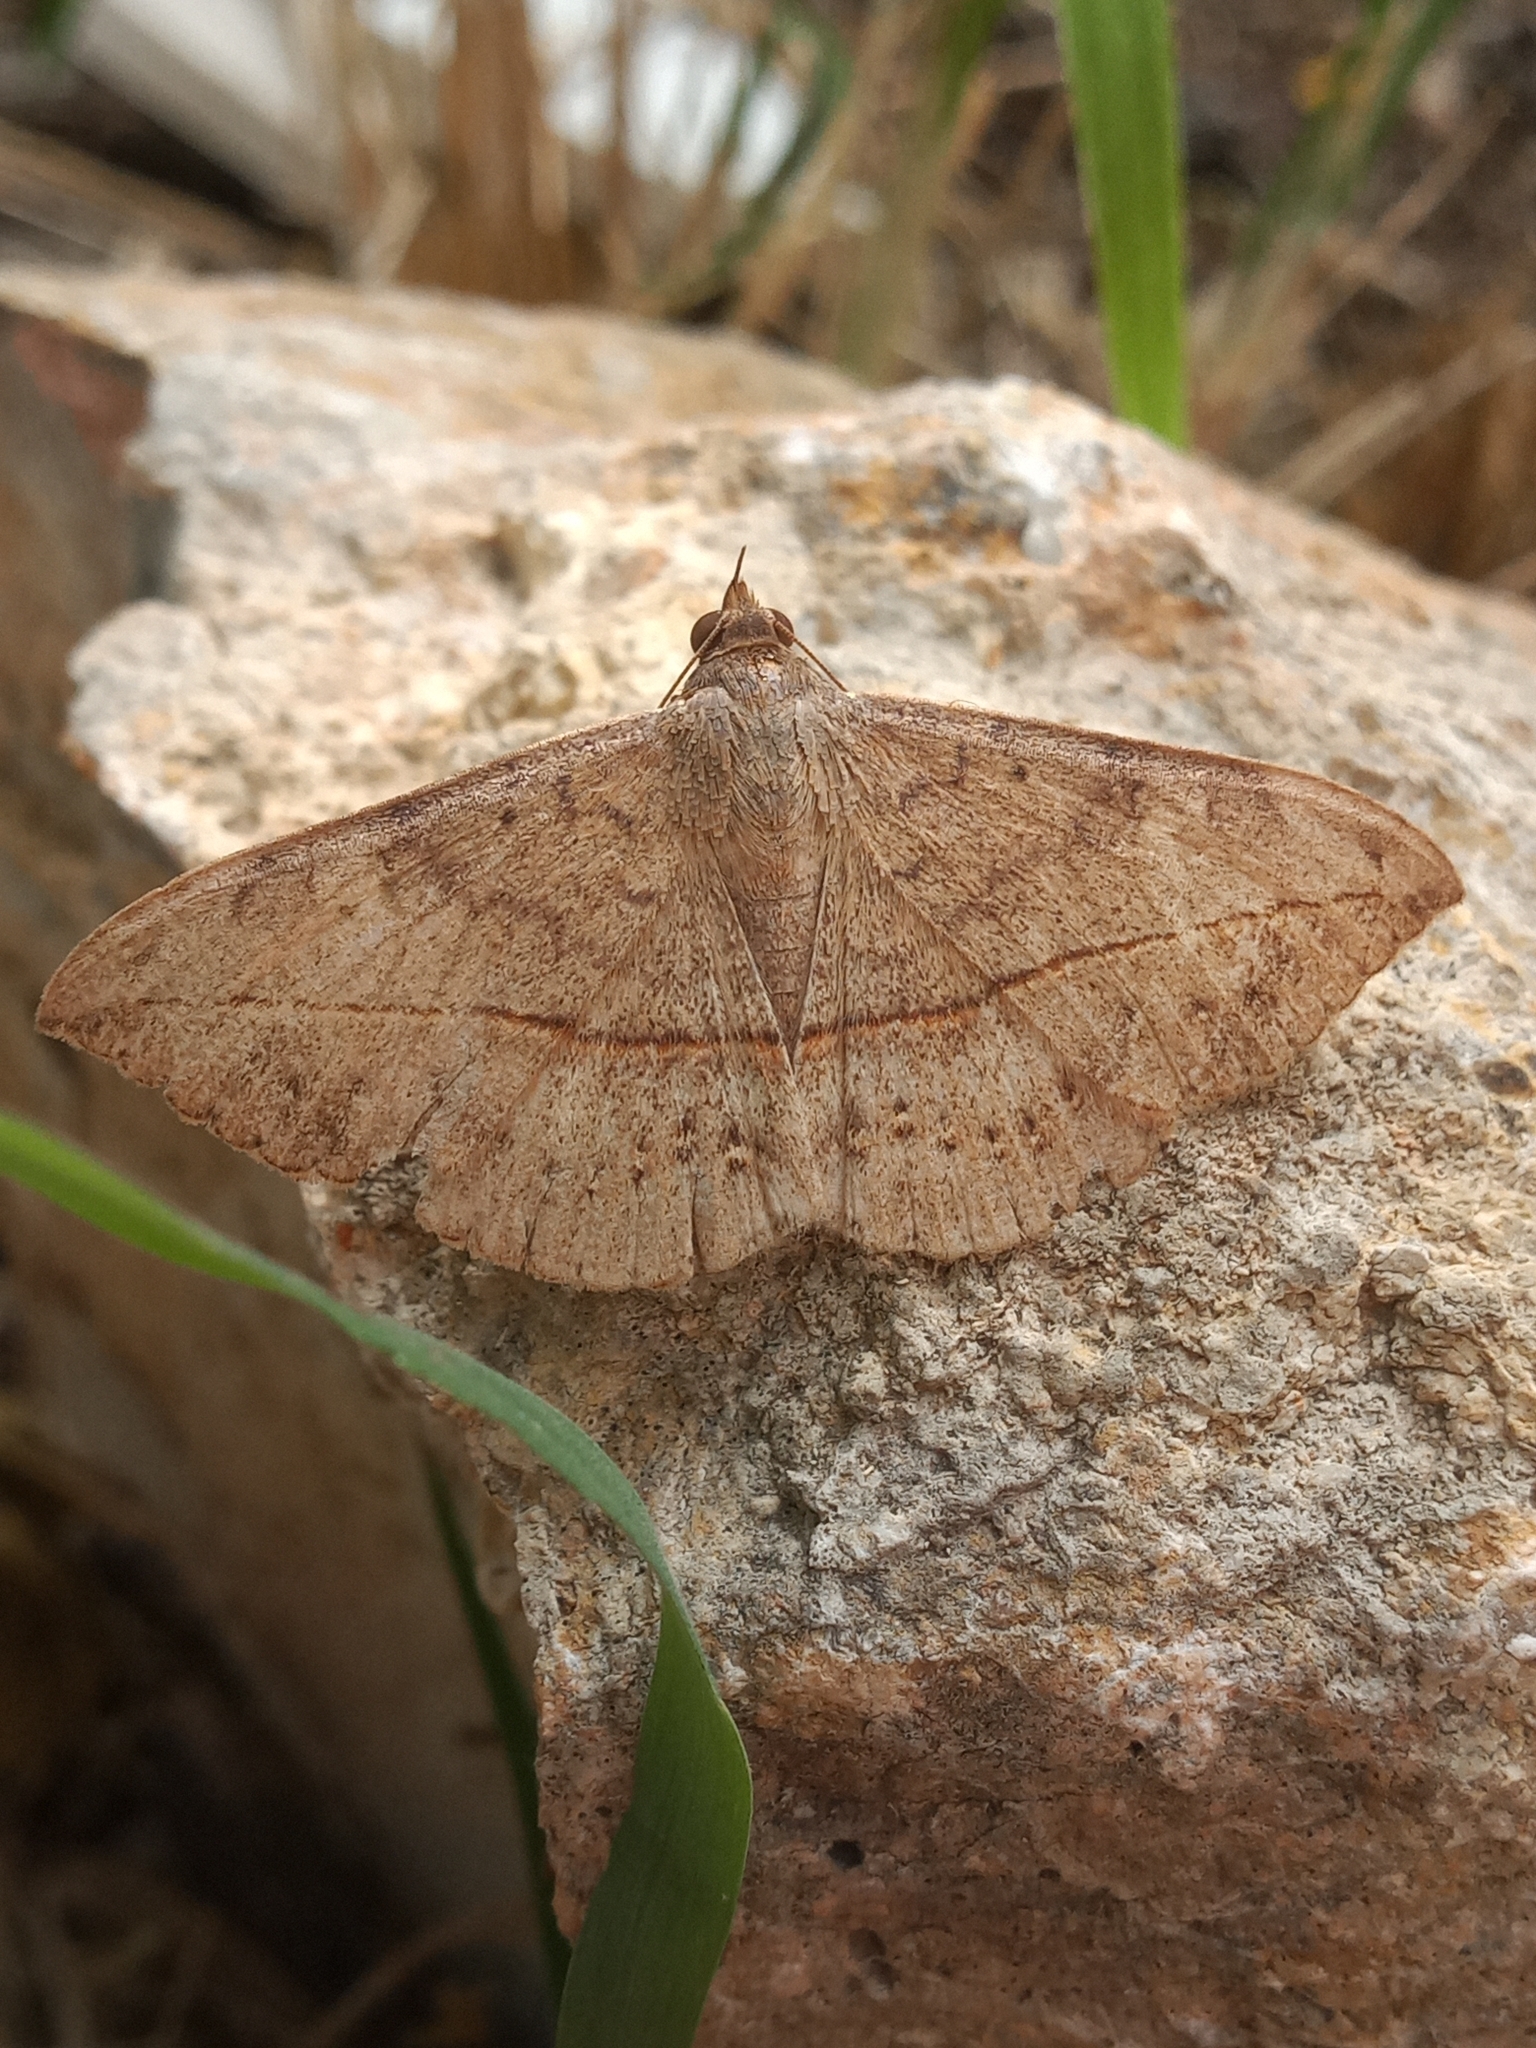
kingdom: Animalia
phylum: Arthropoda
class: Insecta
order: Lepidoptera
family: Erebidae
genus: Anticarsia
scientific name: Anticarsia gemmatalis
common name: Cutworm moth
